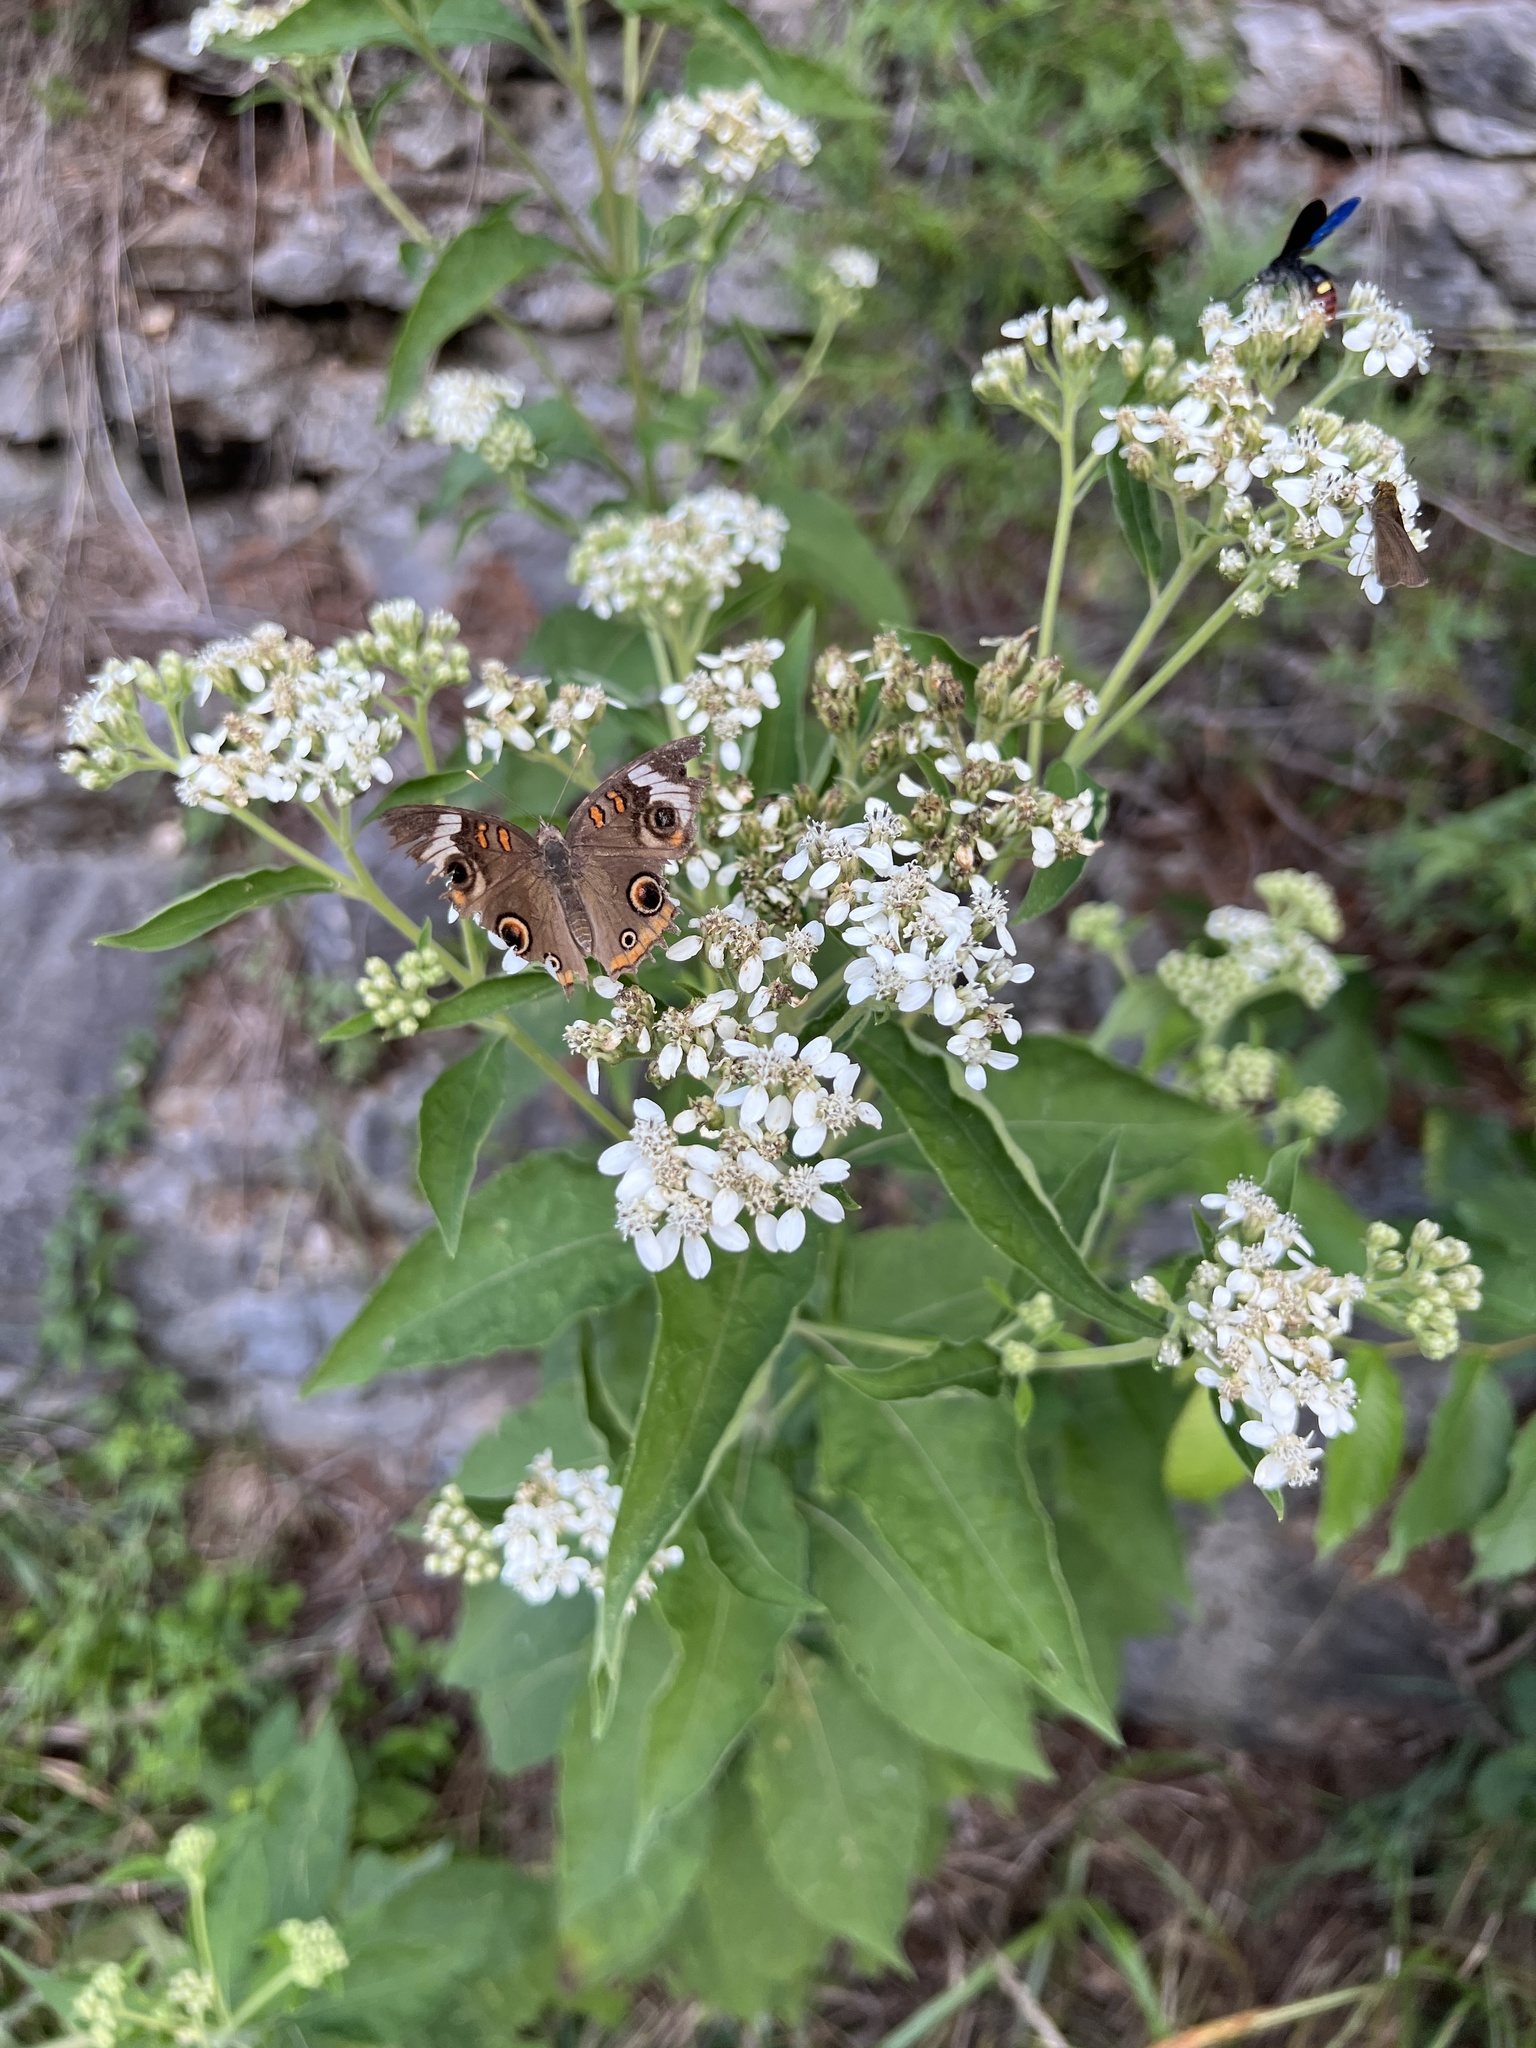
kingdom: Plantae
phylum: Tracheophyta
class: Magnoliopsida
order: Asterales
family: Asteraceae
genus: Verbesina
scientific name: Verbesina virginica
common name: Frostweed
